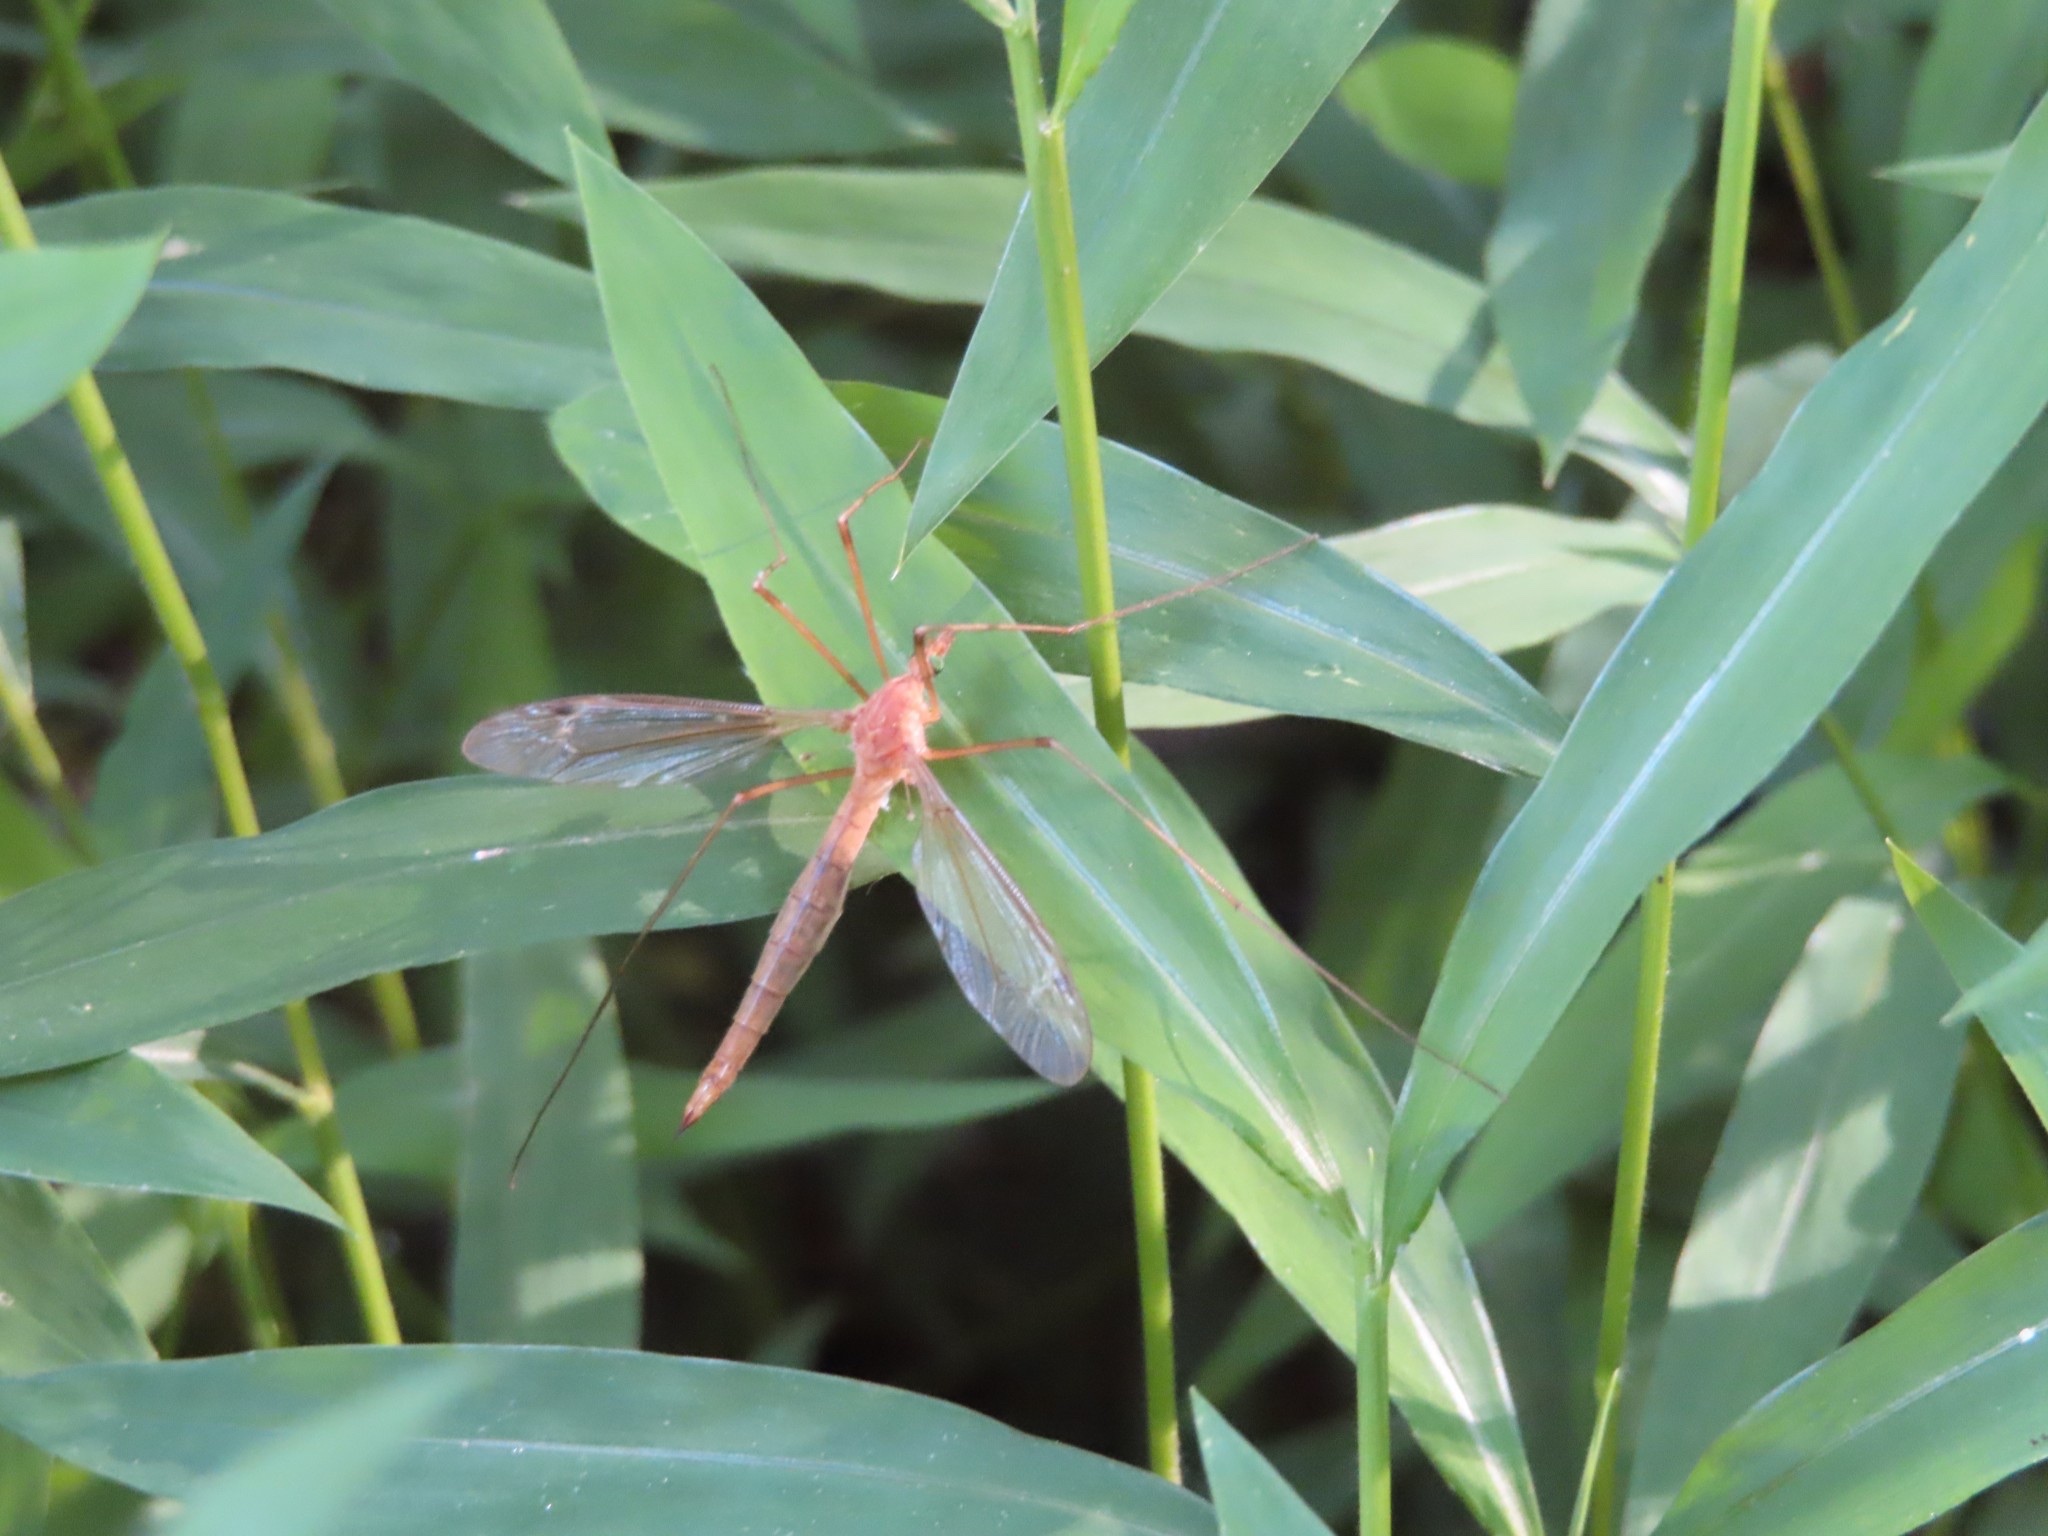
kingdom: Animalia
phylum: Arthropoda
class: Insecta
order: Diptera
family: Tipulidae
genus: Nephrotoma
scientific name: Nephrotoma ferruginea
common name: Ferruginous tiger crane fly
